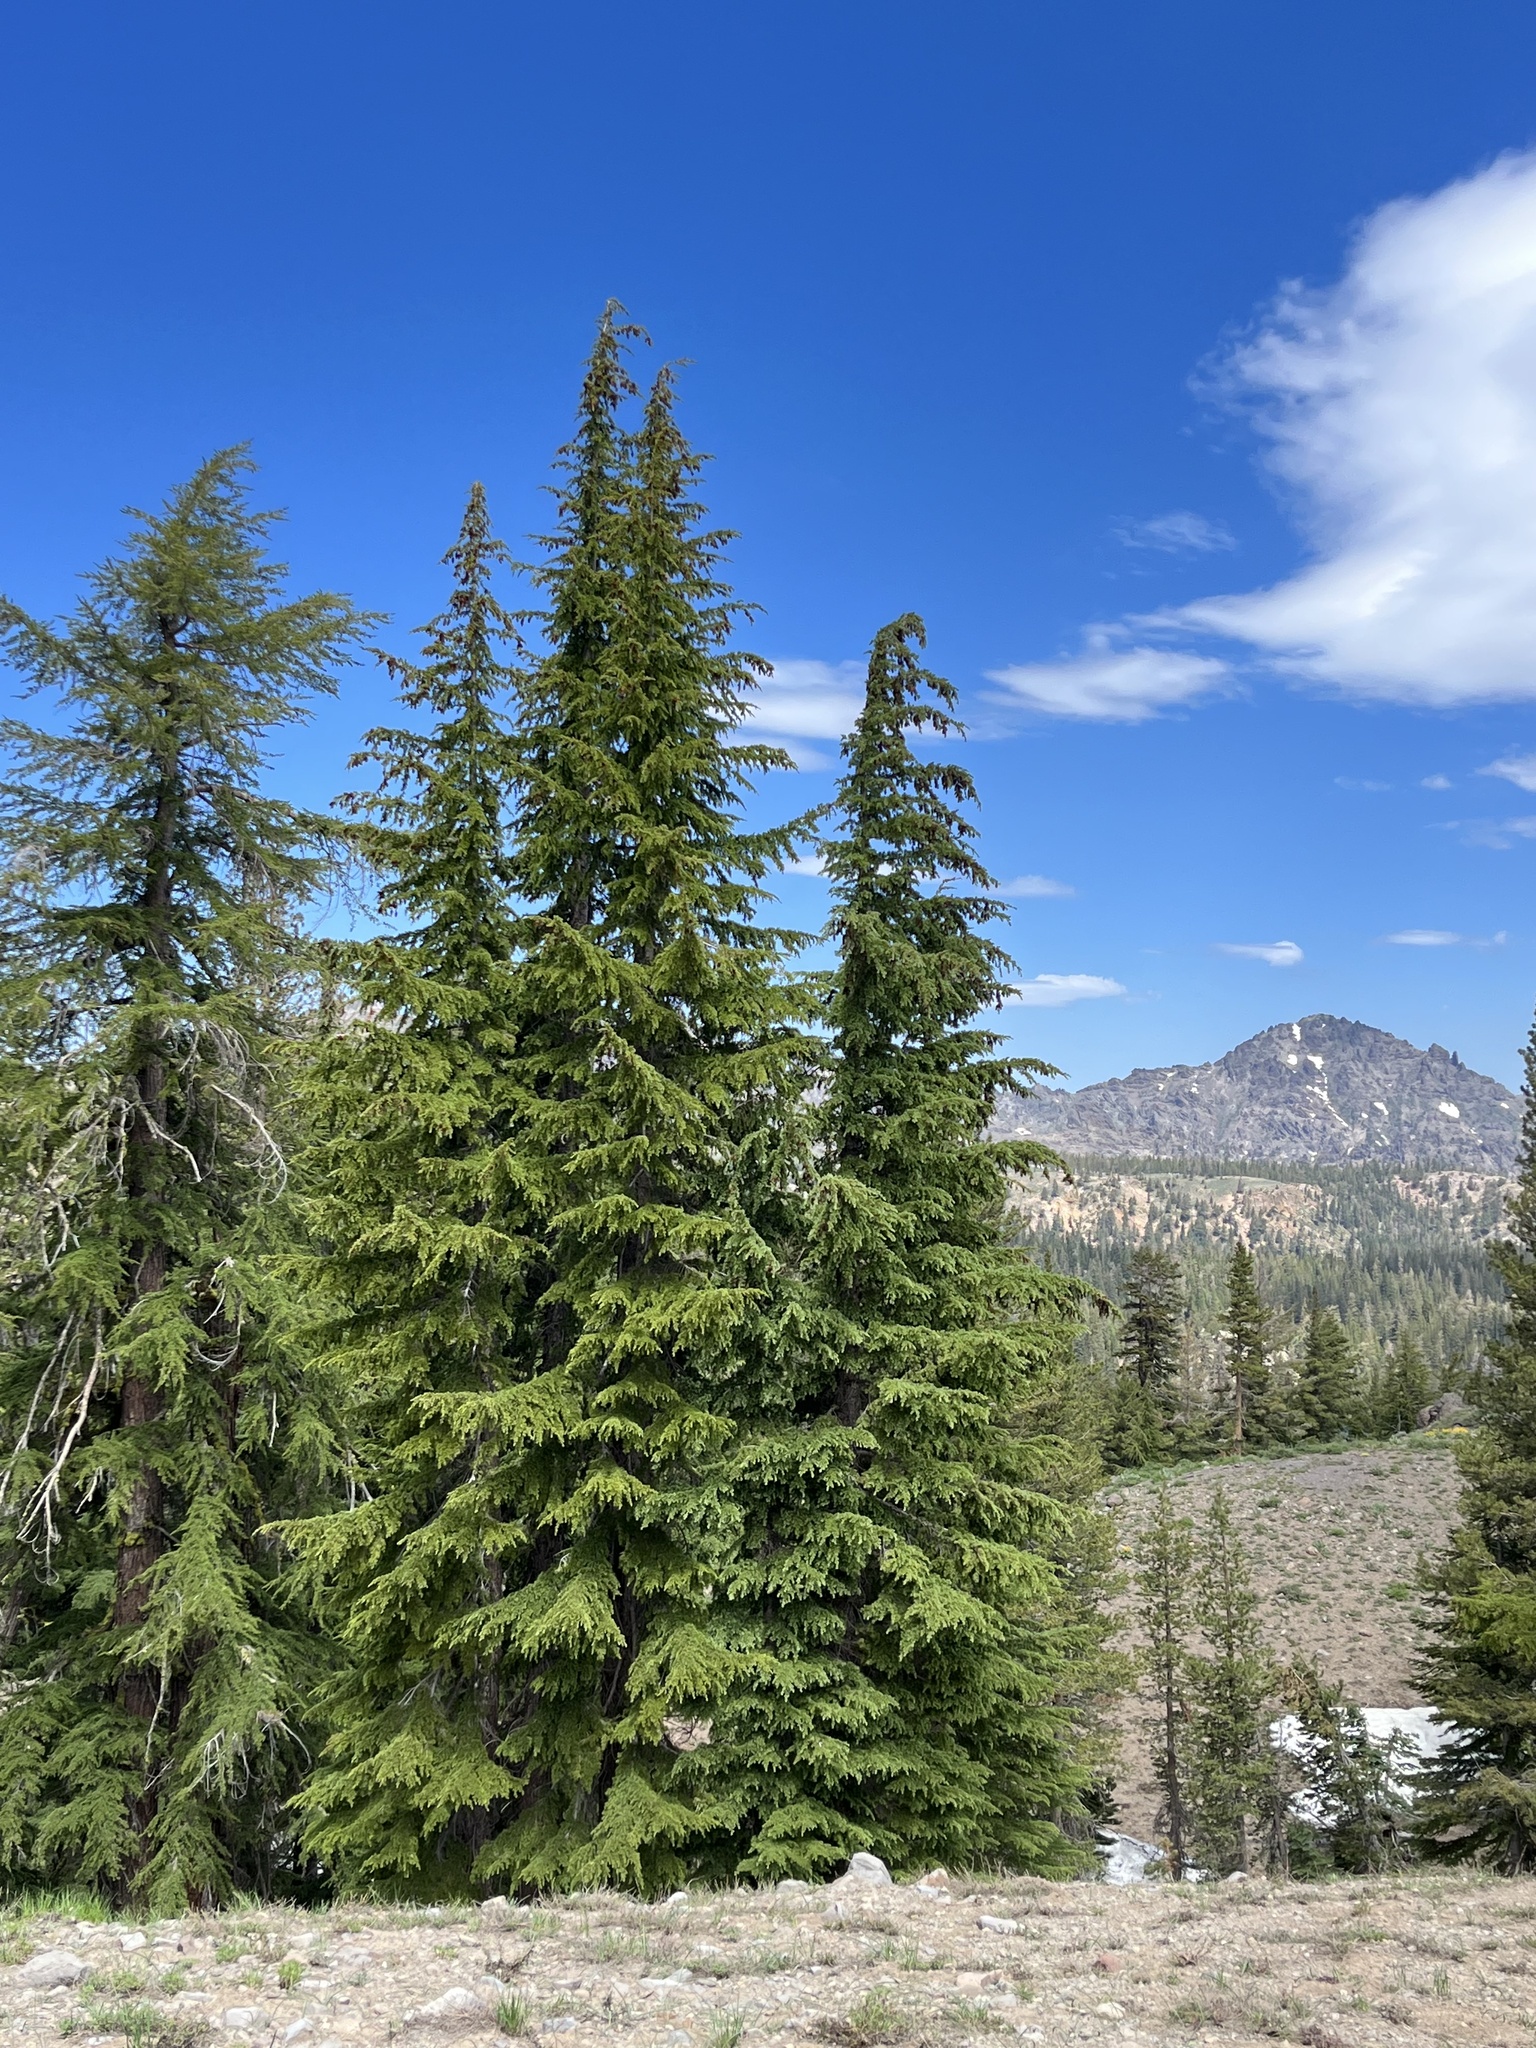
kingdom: Plantae
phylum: Tracheophyta
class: Pinopsida
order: Pinales
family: Pinaceae
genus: Tsuga
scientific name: Tsuga mertensiana
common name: Mountain hemlock
